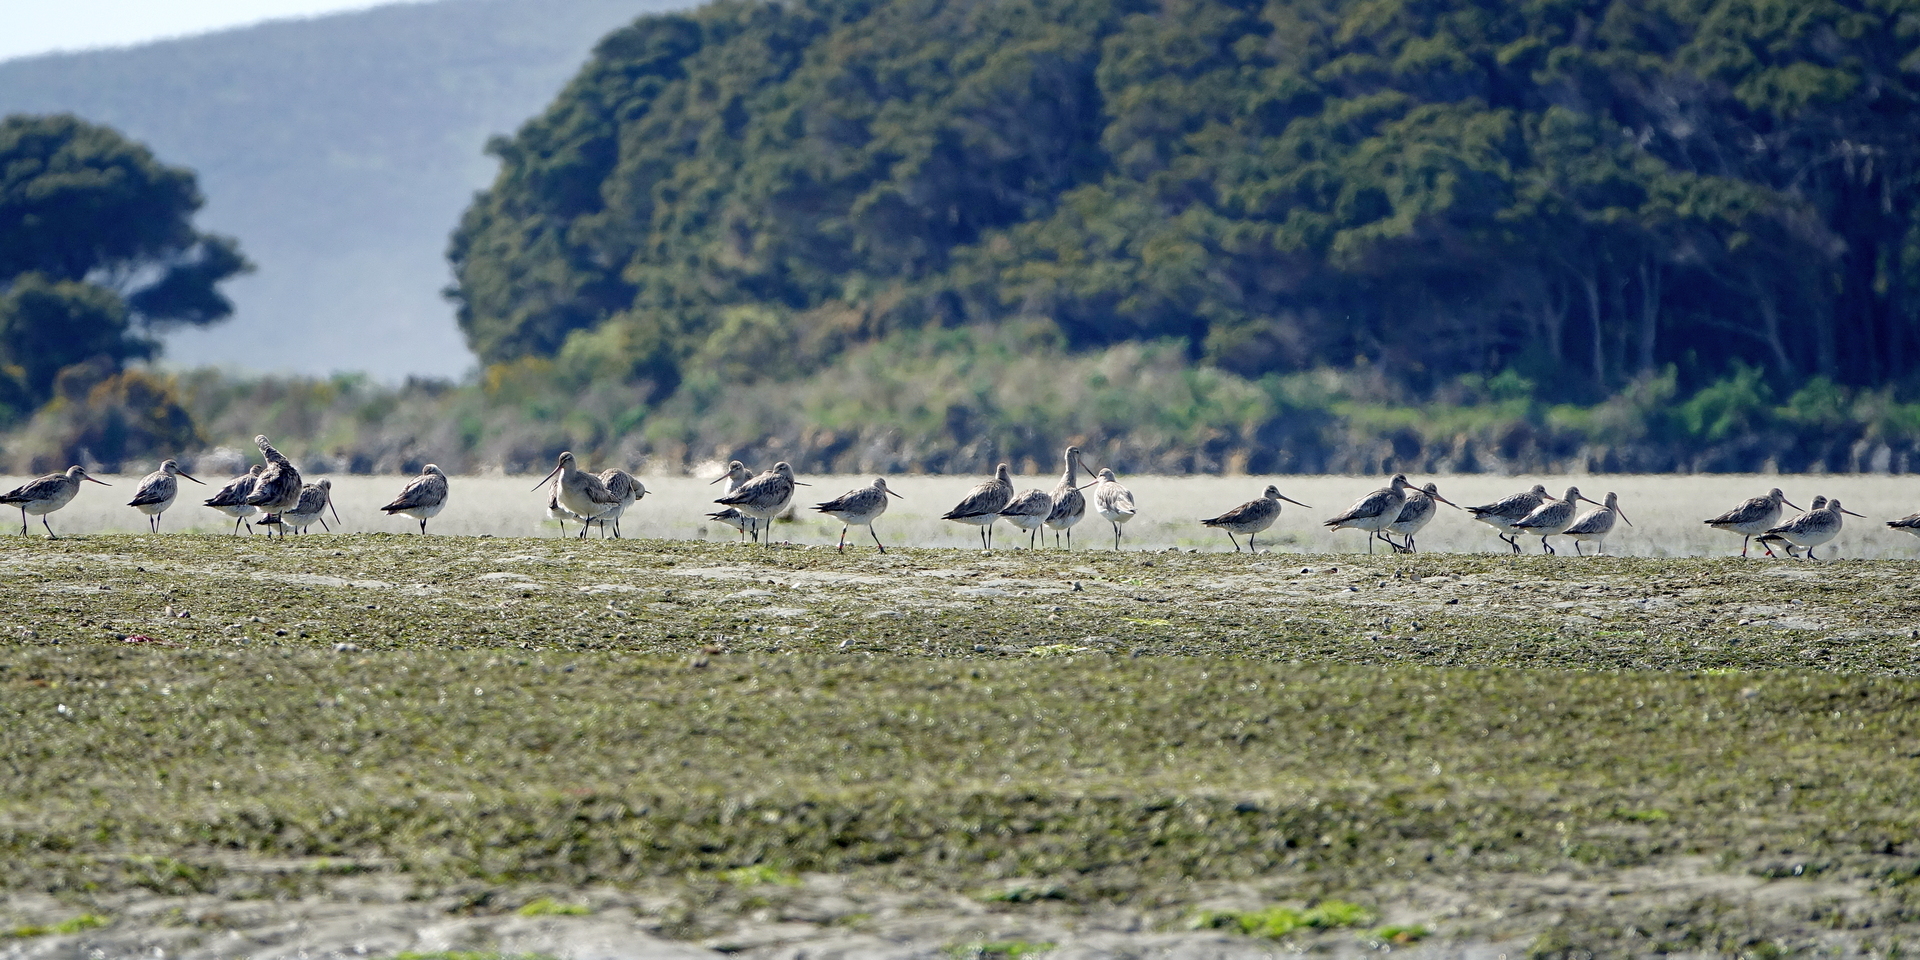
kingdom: Animalia
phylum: Chordata
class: Aves
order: Charadriiformes
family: Scolopacidae
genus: Limosa
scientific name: Limosa lapponica
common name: Bar-tailed godwit
